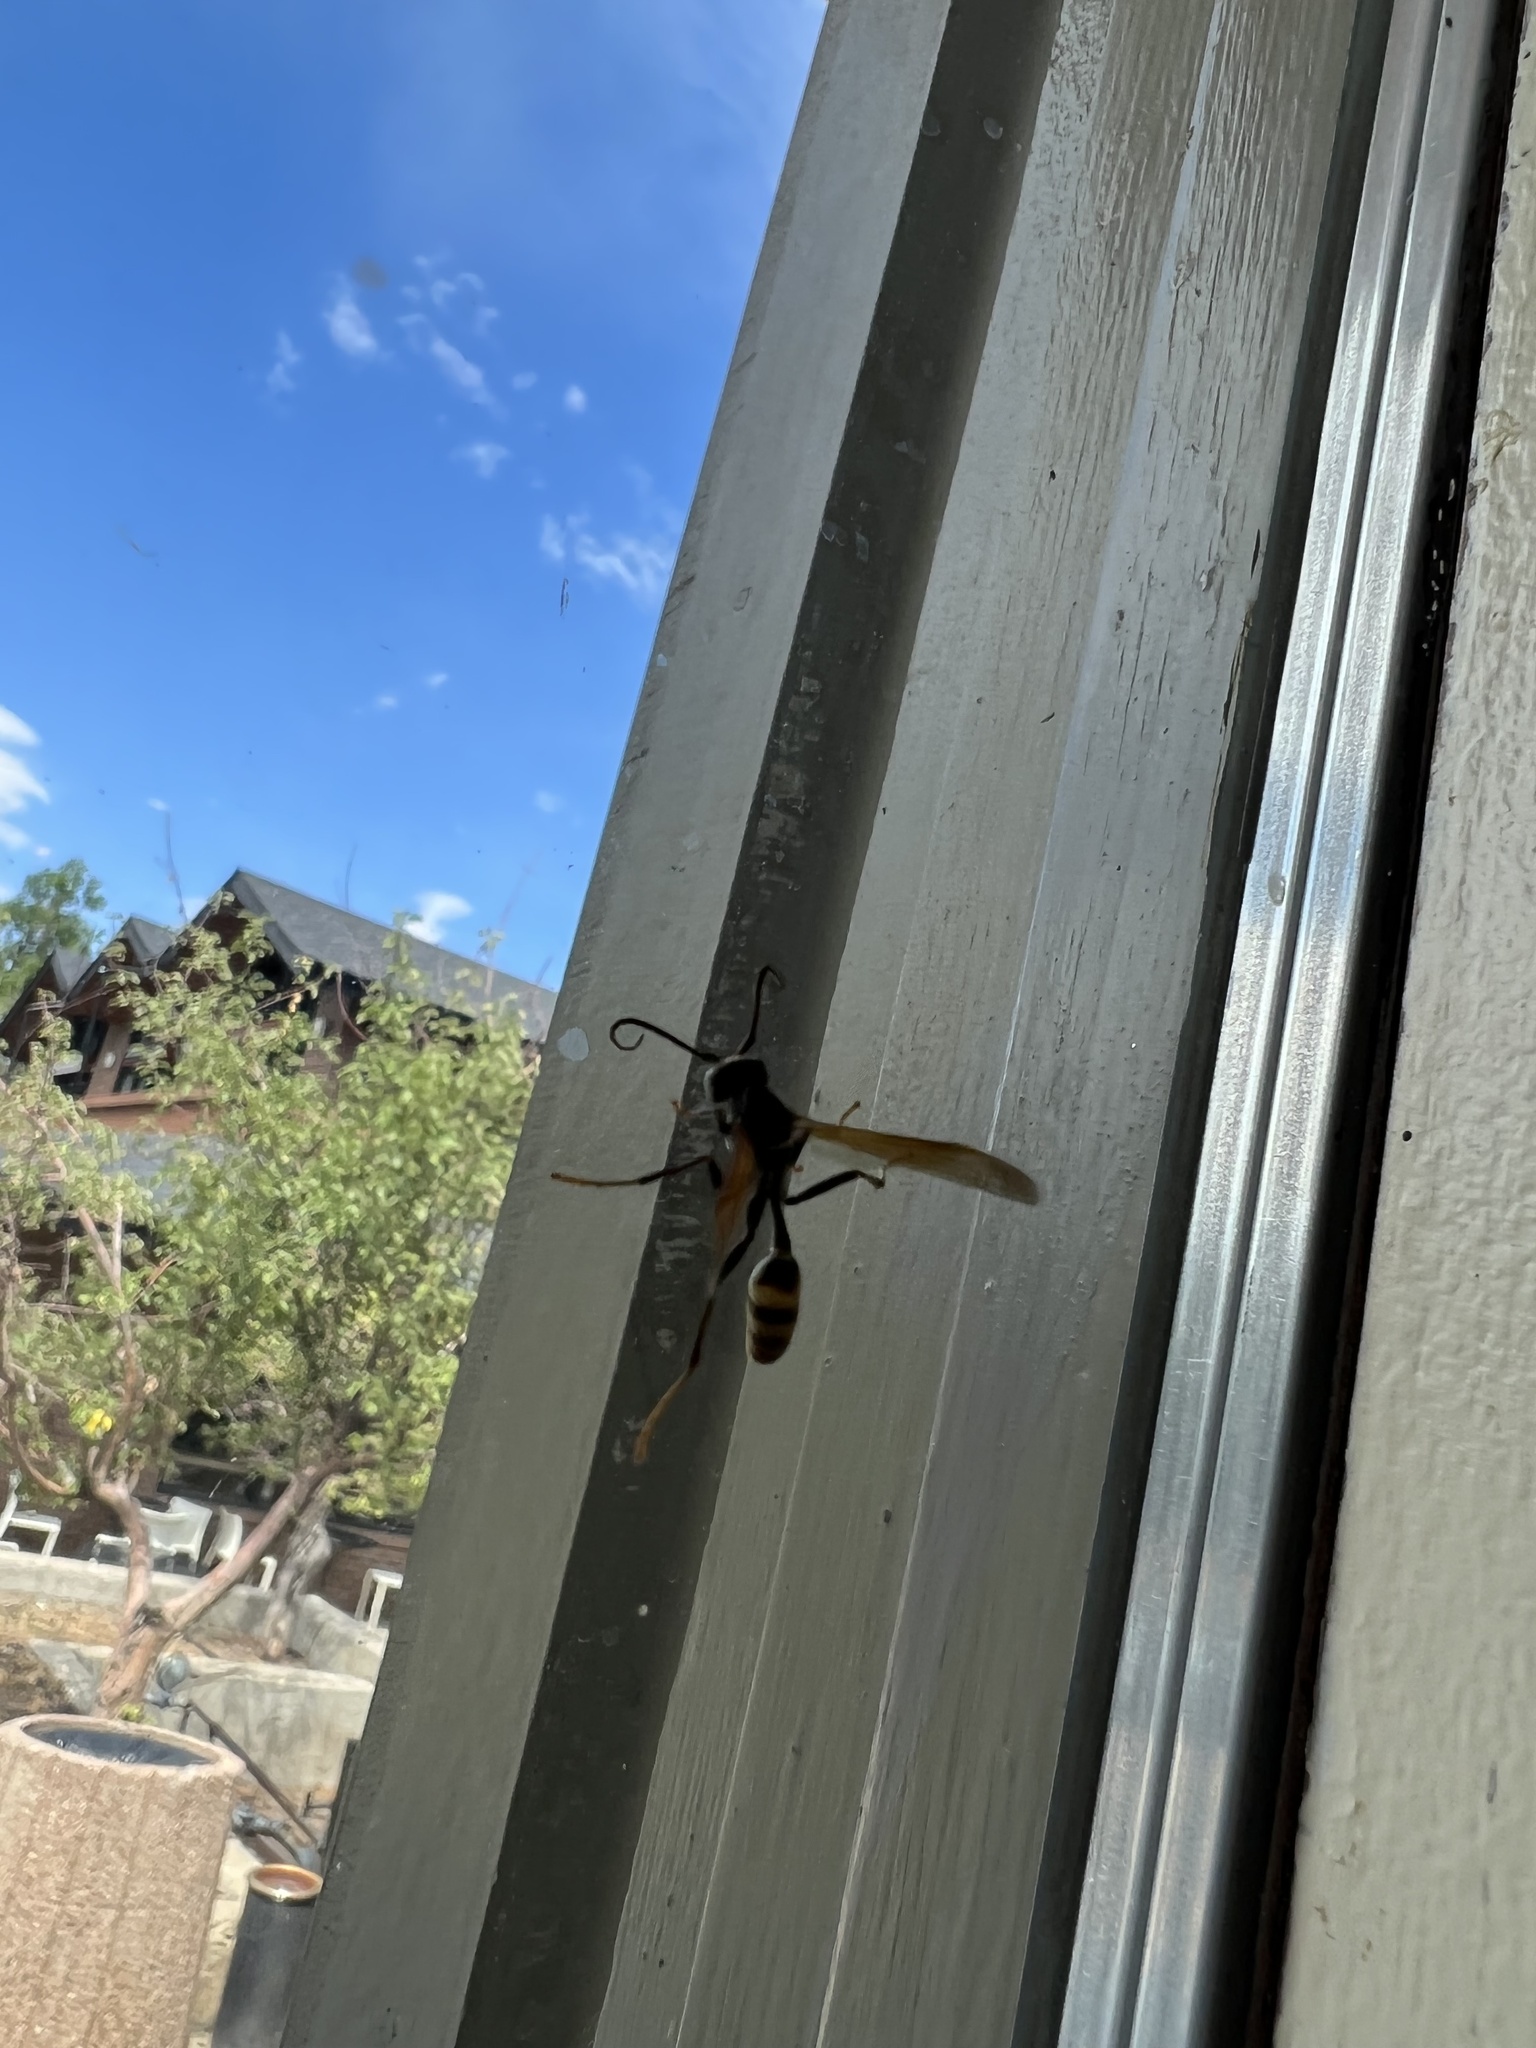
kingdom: Animalia
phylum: Arthropoda
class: Insecta
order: Hymenoptera
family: Vespidae
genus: Mischocyttarus
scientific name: Mischocyttarus flavitarsis
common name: Wasp
